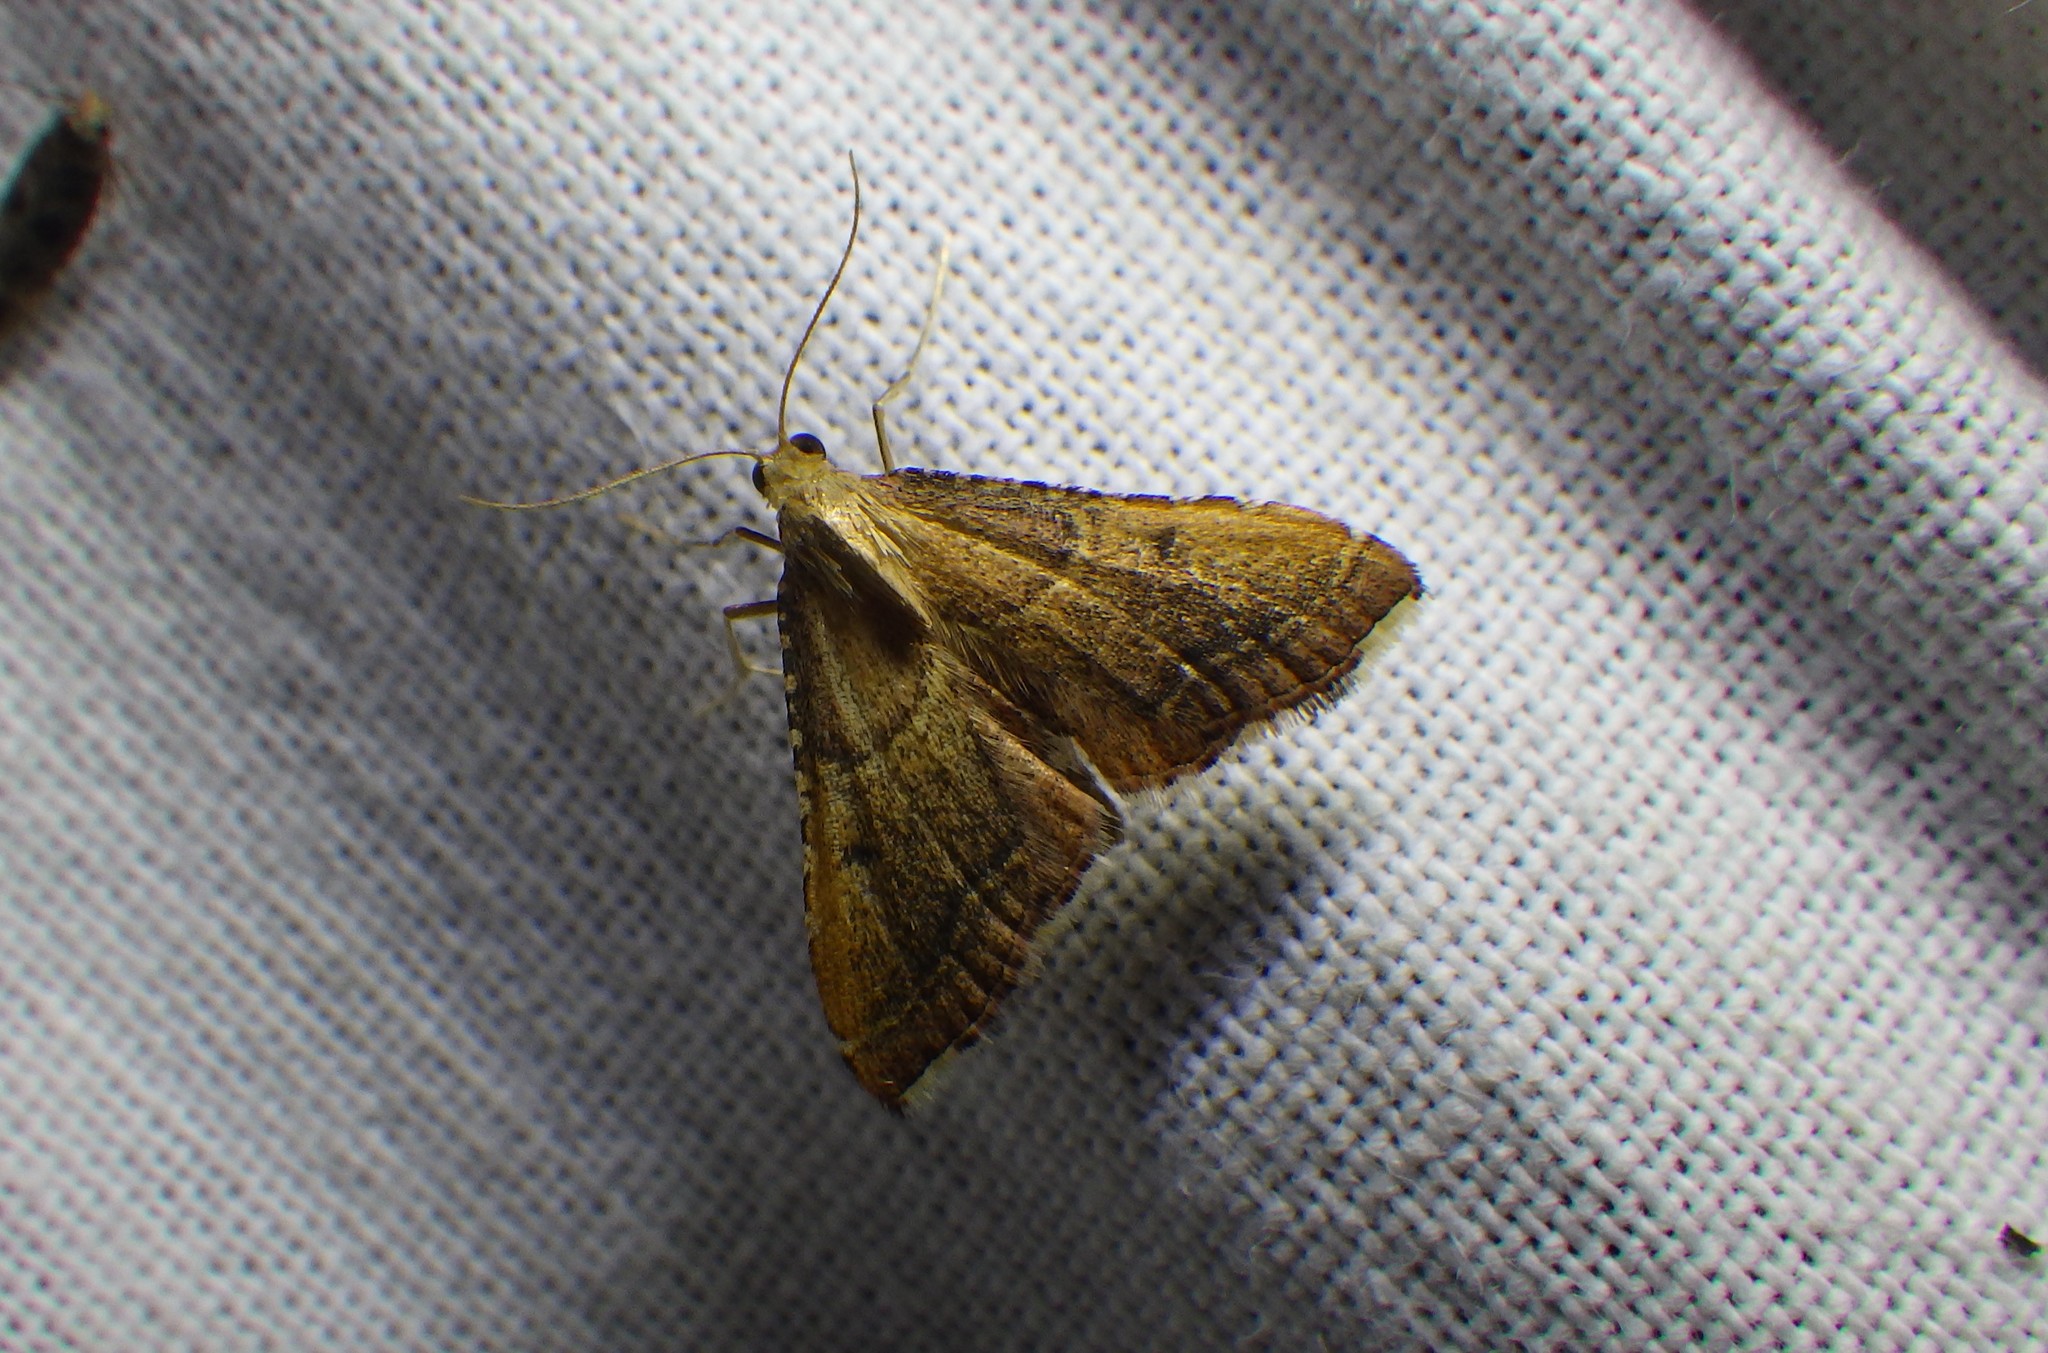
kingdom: Animalia
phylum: Arthropoda
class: Insecta
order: Lepidoptera
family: Pyralidae
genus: Endotricha
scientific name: Endotricha flammealis
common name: Rosy tabby
